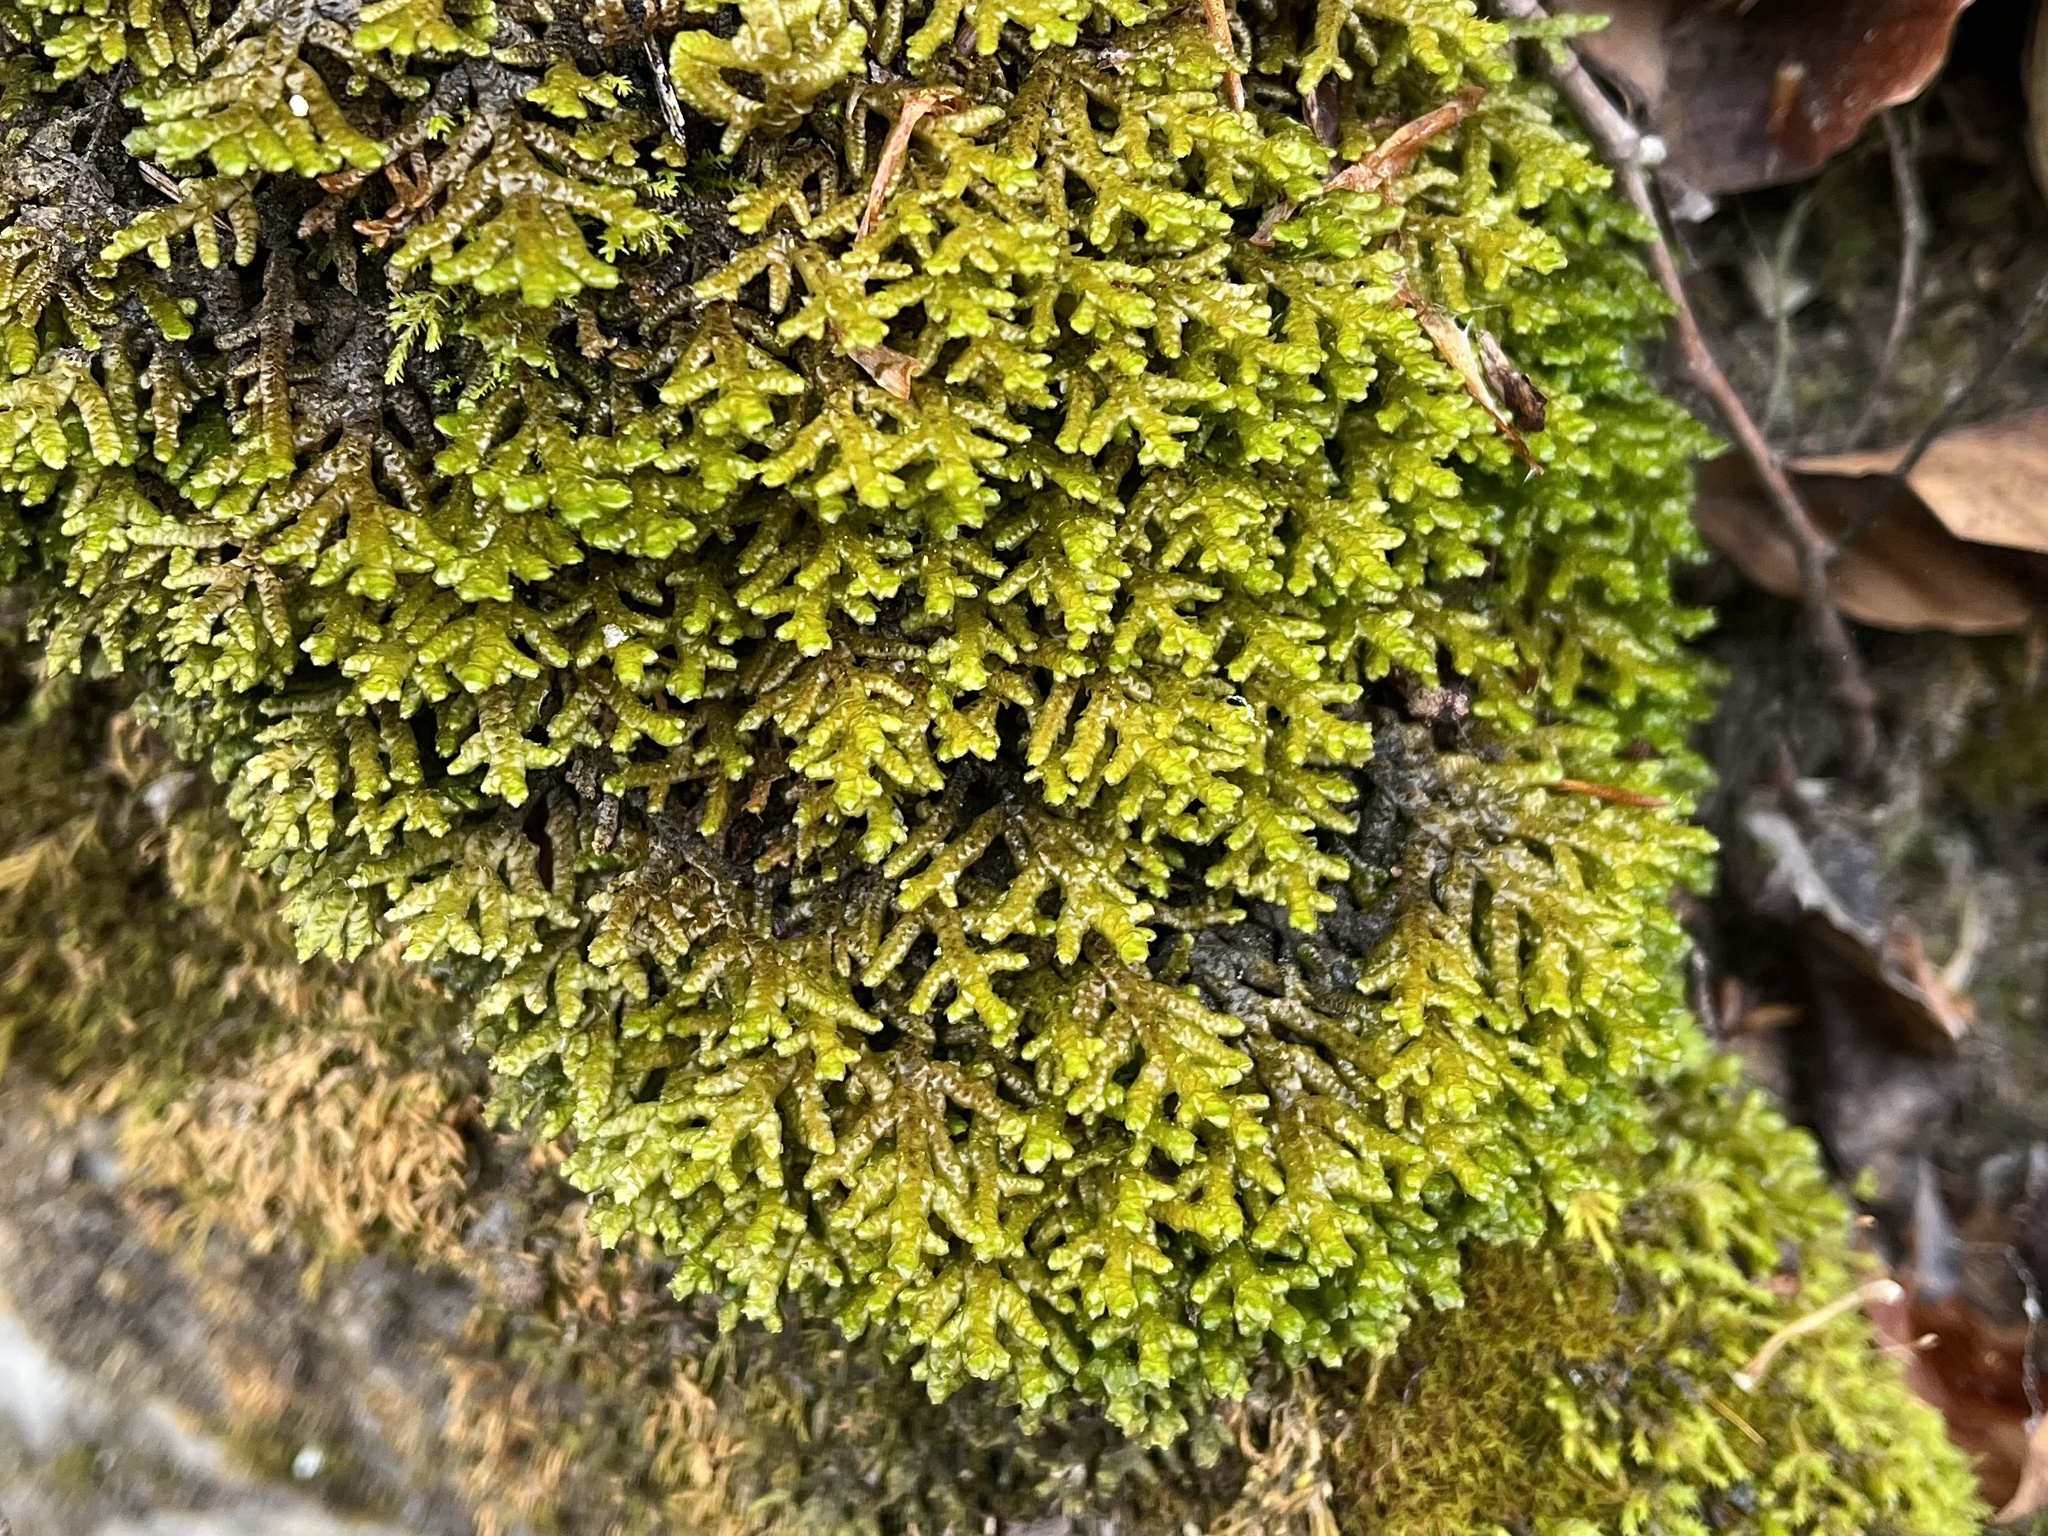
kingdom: Plantae
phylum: Marchantiophyta
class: Jungermanniopsida
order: Porellales
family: Porellaceae
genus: Porella
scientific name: Porella platyphylla
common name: Wall scalewort
